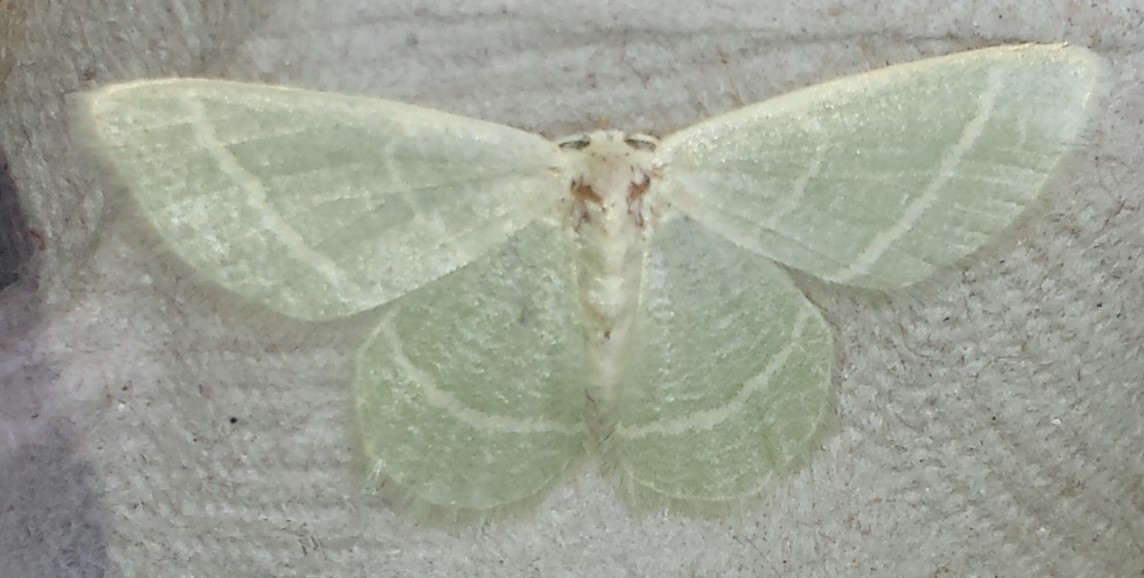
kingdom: Animalia
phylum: Arthropoda
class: Insecta
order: Lepidoptera
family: Geometridae
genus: Chlorochlamys
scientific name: Chlorochlamys chloroleucaria
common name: Blackberry looper
